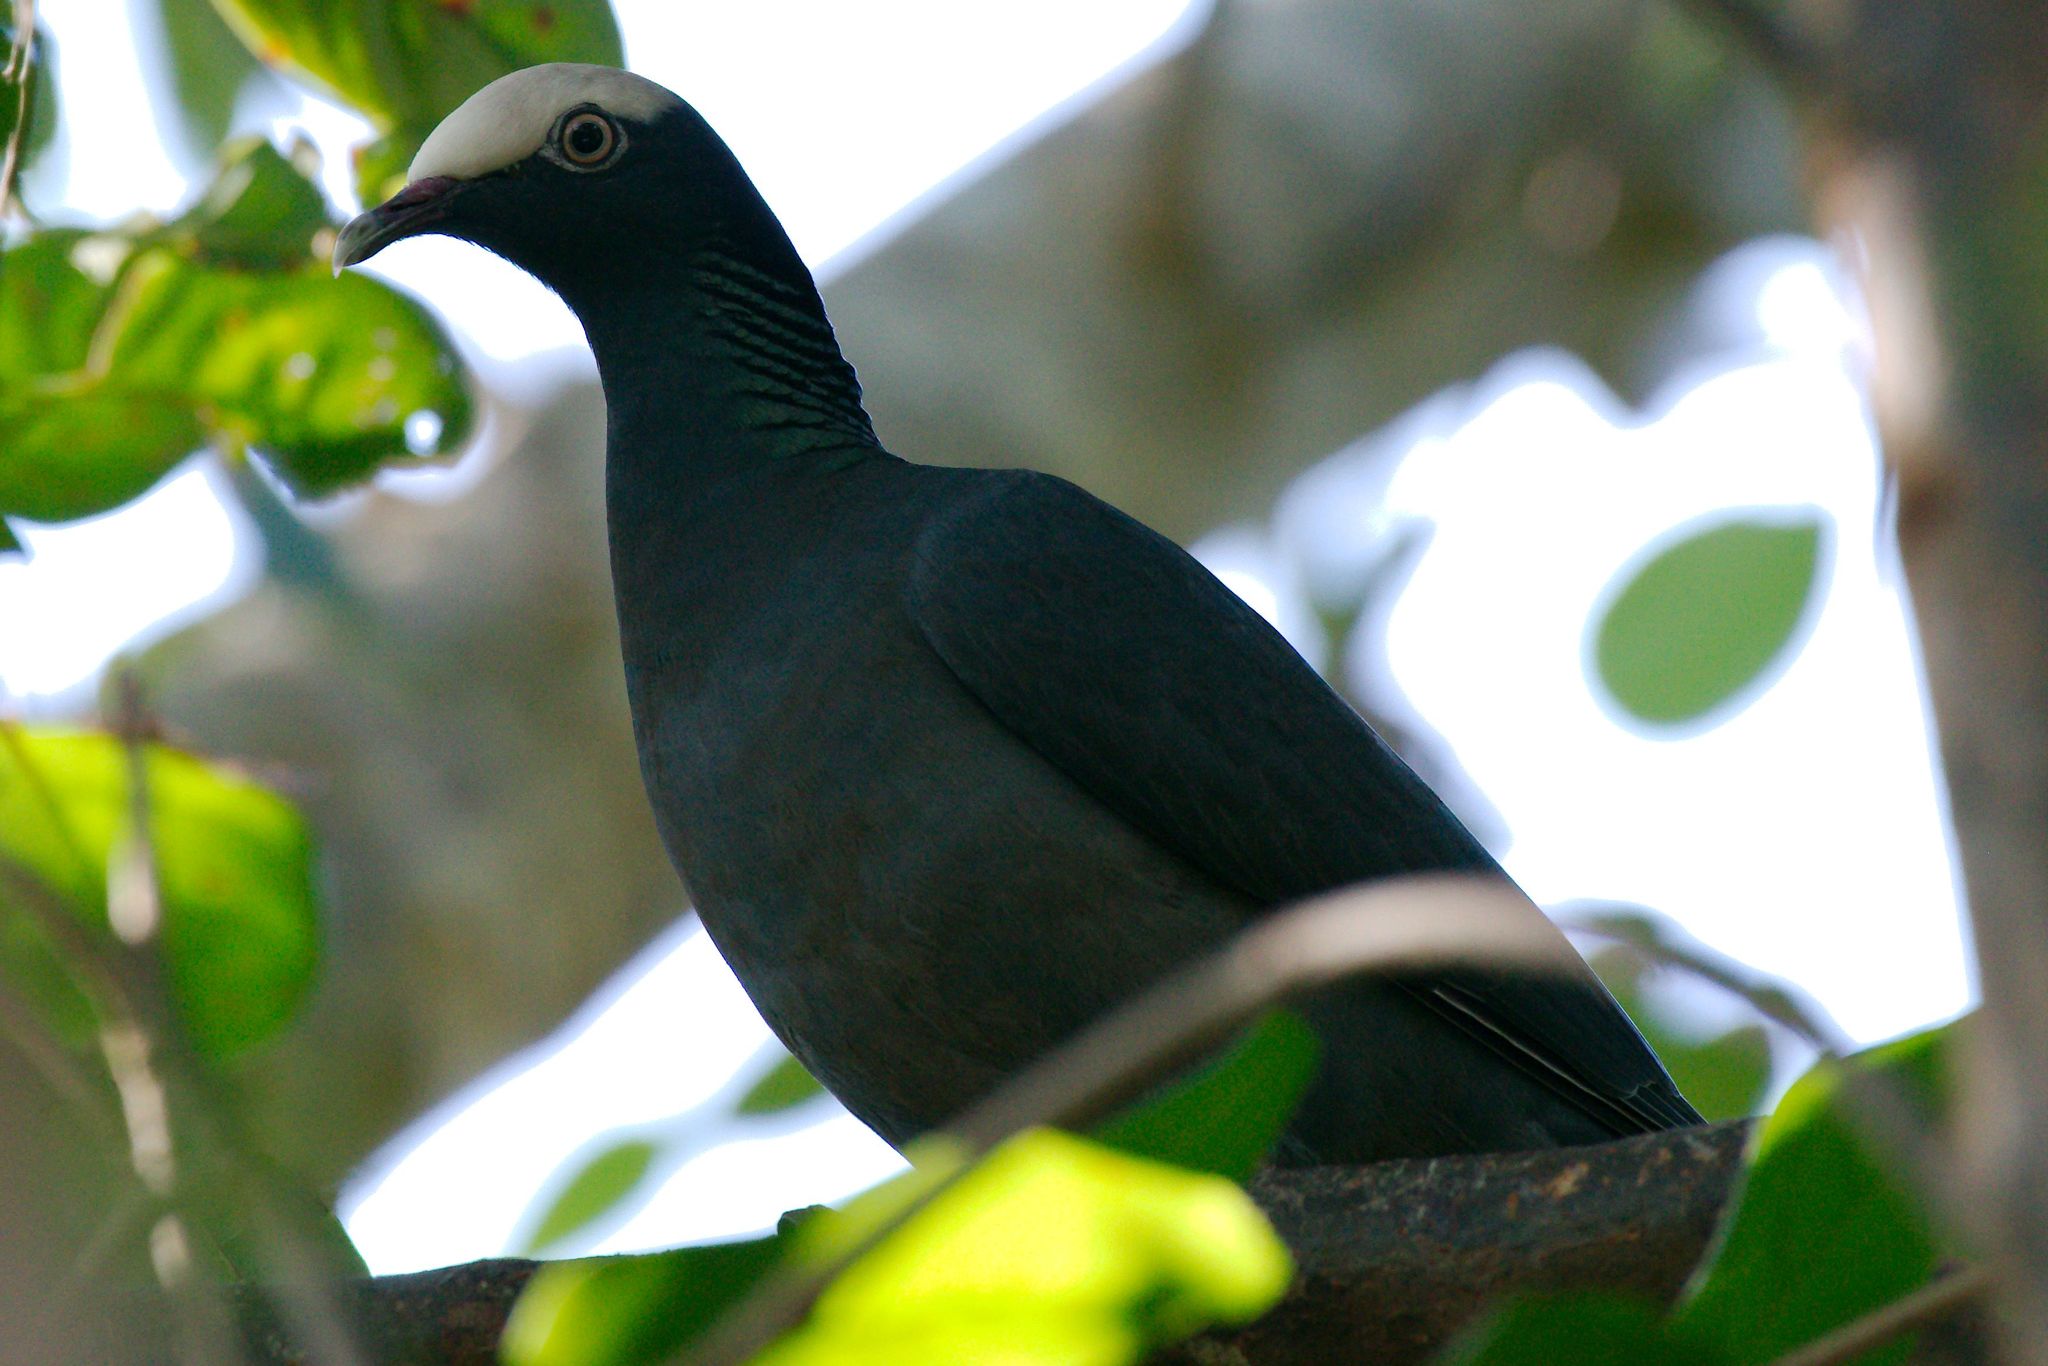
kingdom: Animalia
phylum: Chordata
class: Aves
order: Columbiformes
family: Columbidae
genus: Patagioenas
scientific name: Patagioenas leucocephala
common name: White-crowned pigeon
